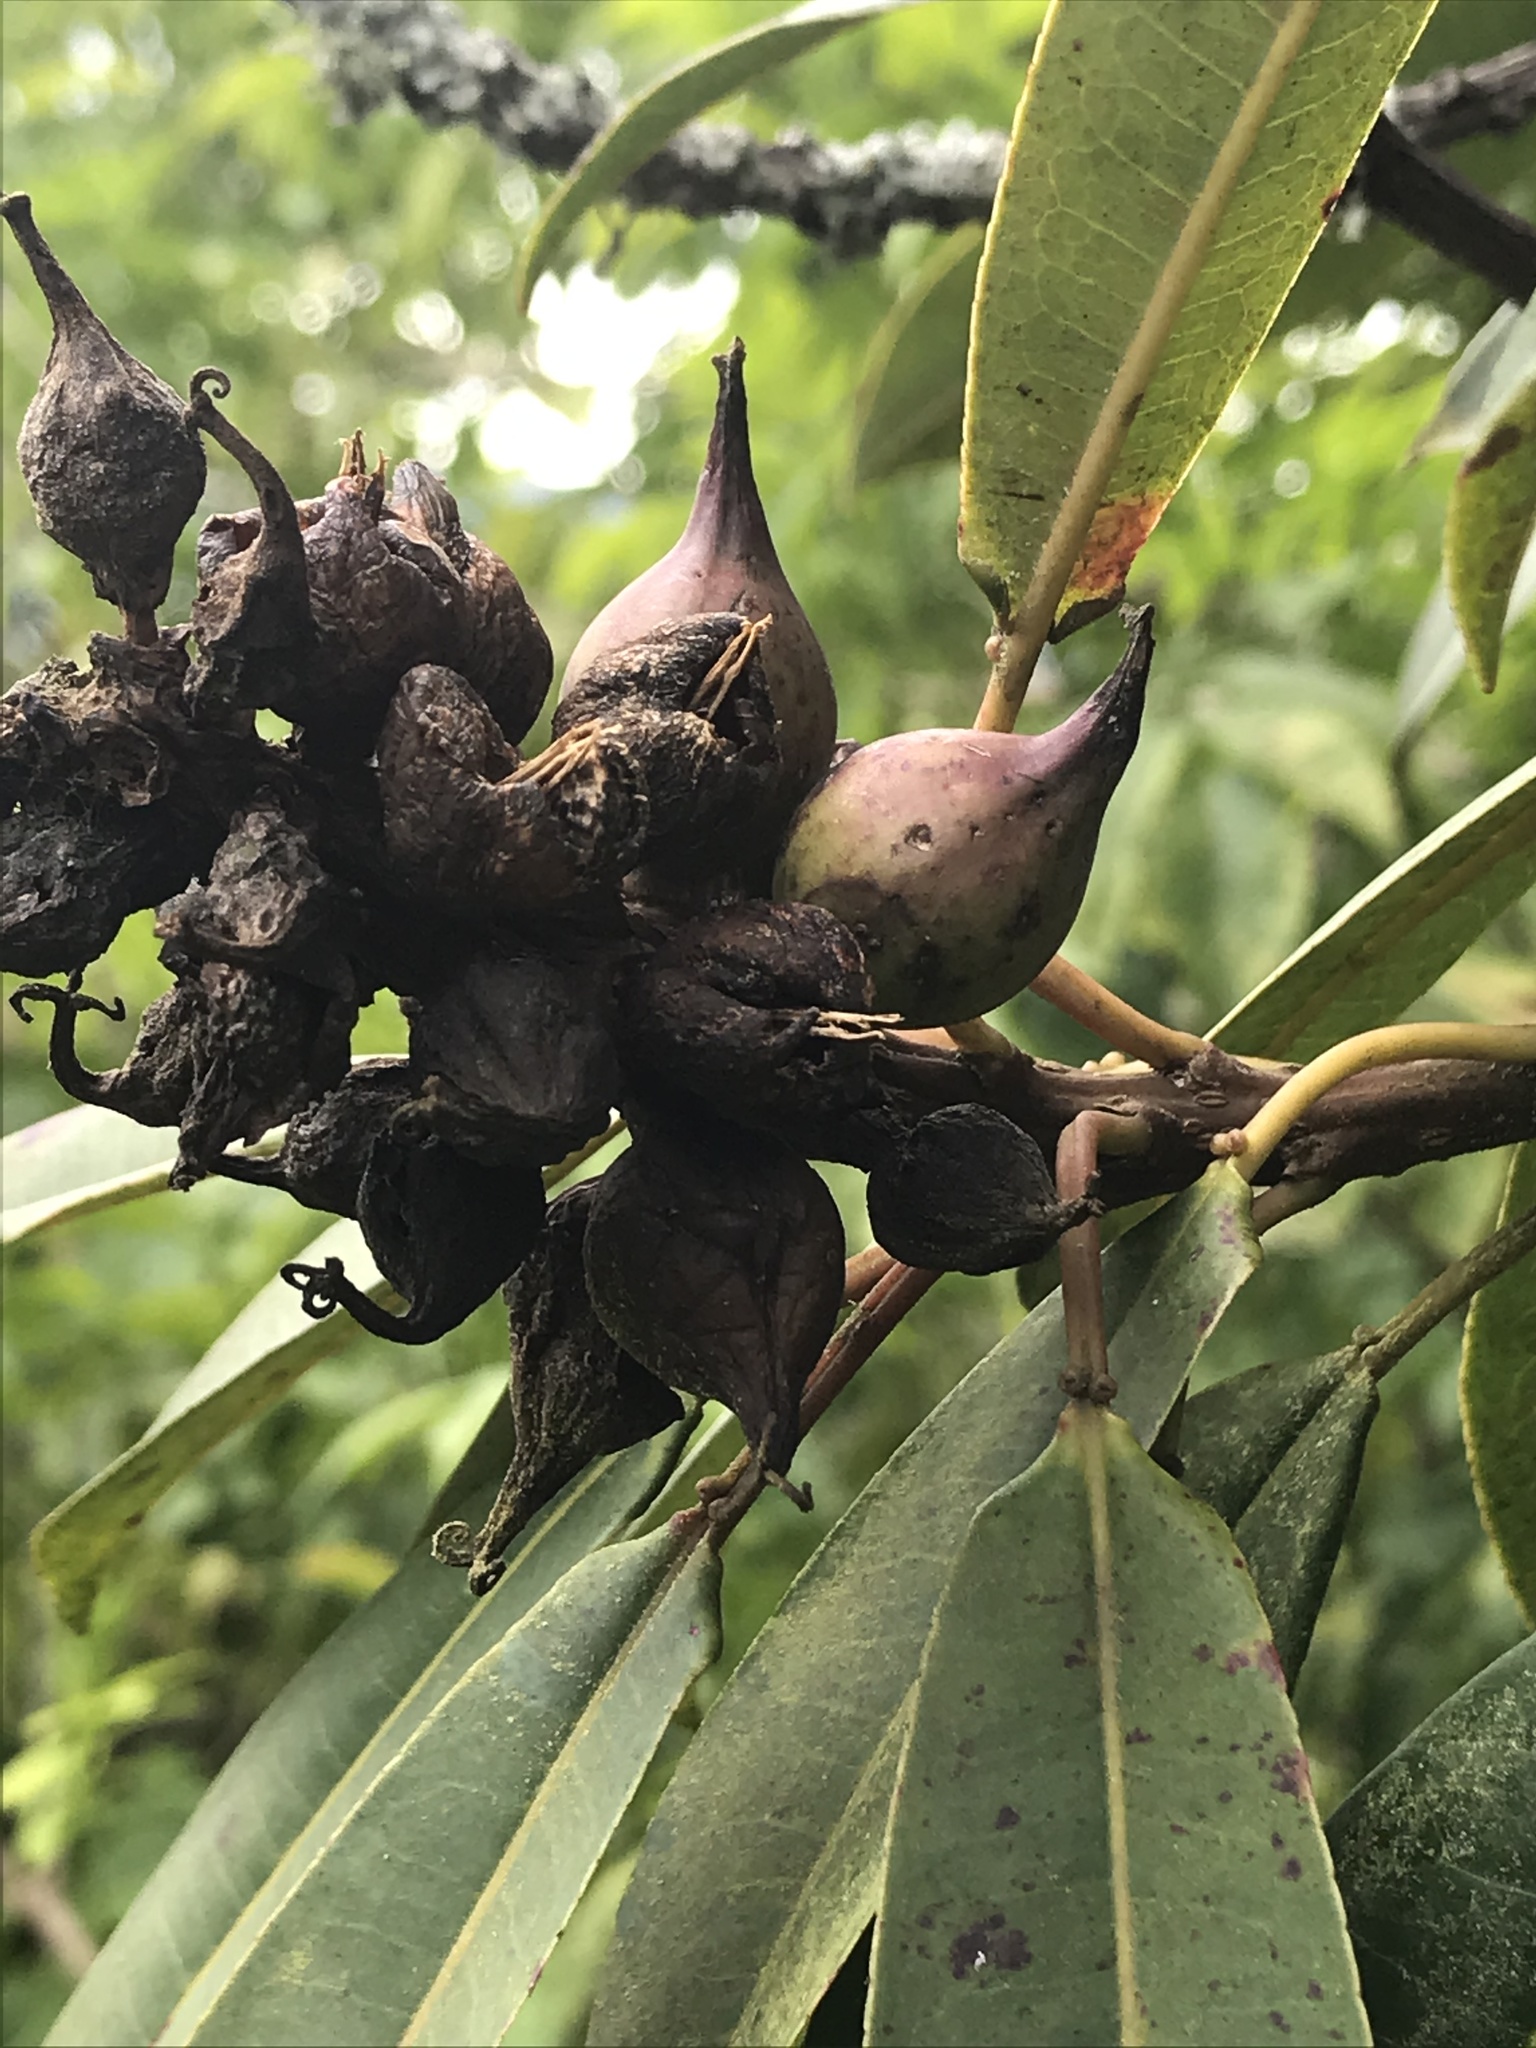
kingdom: Plantae
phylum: Tracheophyta
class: Magnoliopsida
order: Malpighiales
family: Euphorbiaceae
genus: Sapium
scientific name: Sapium stylare
